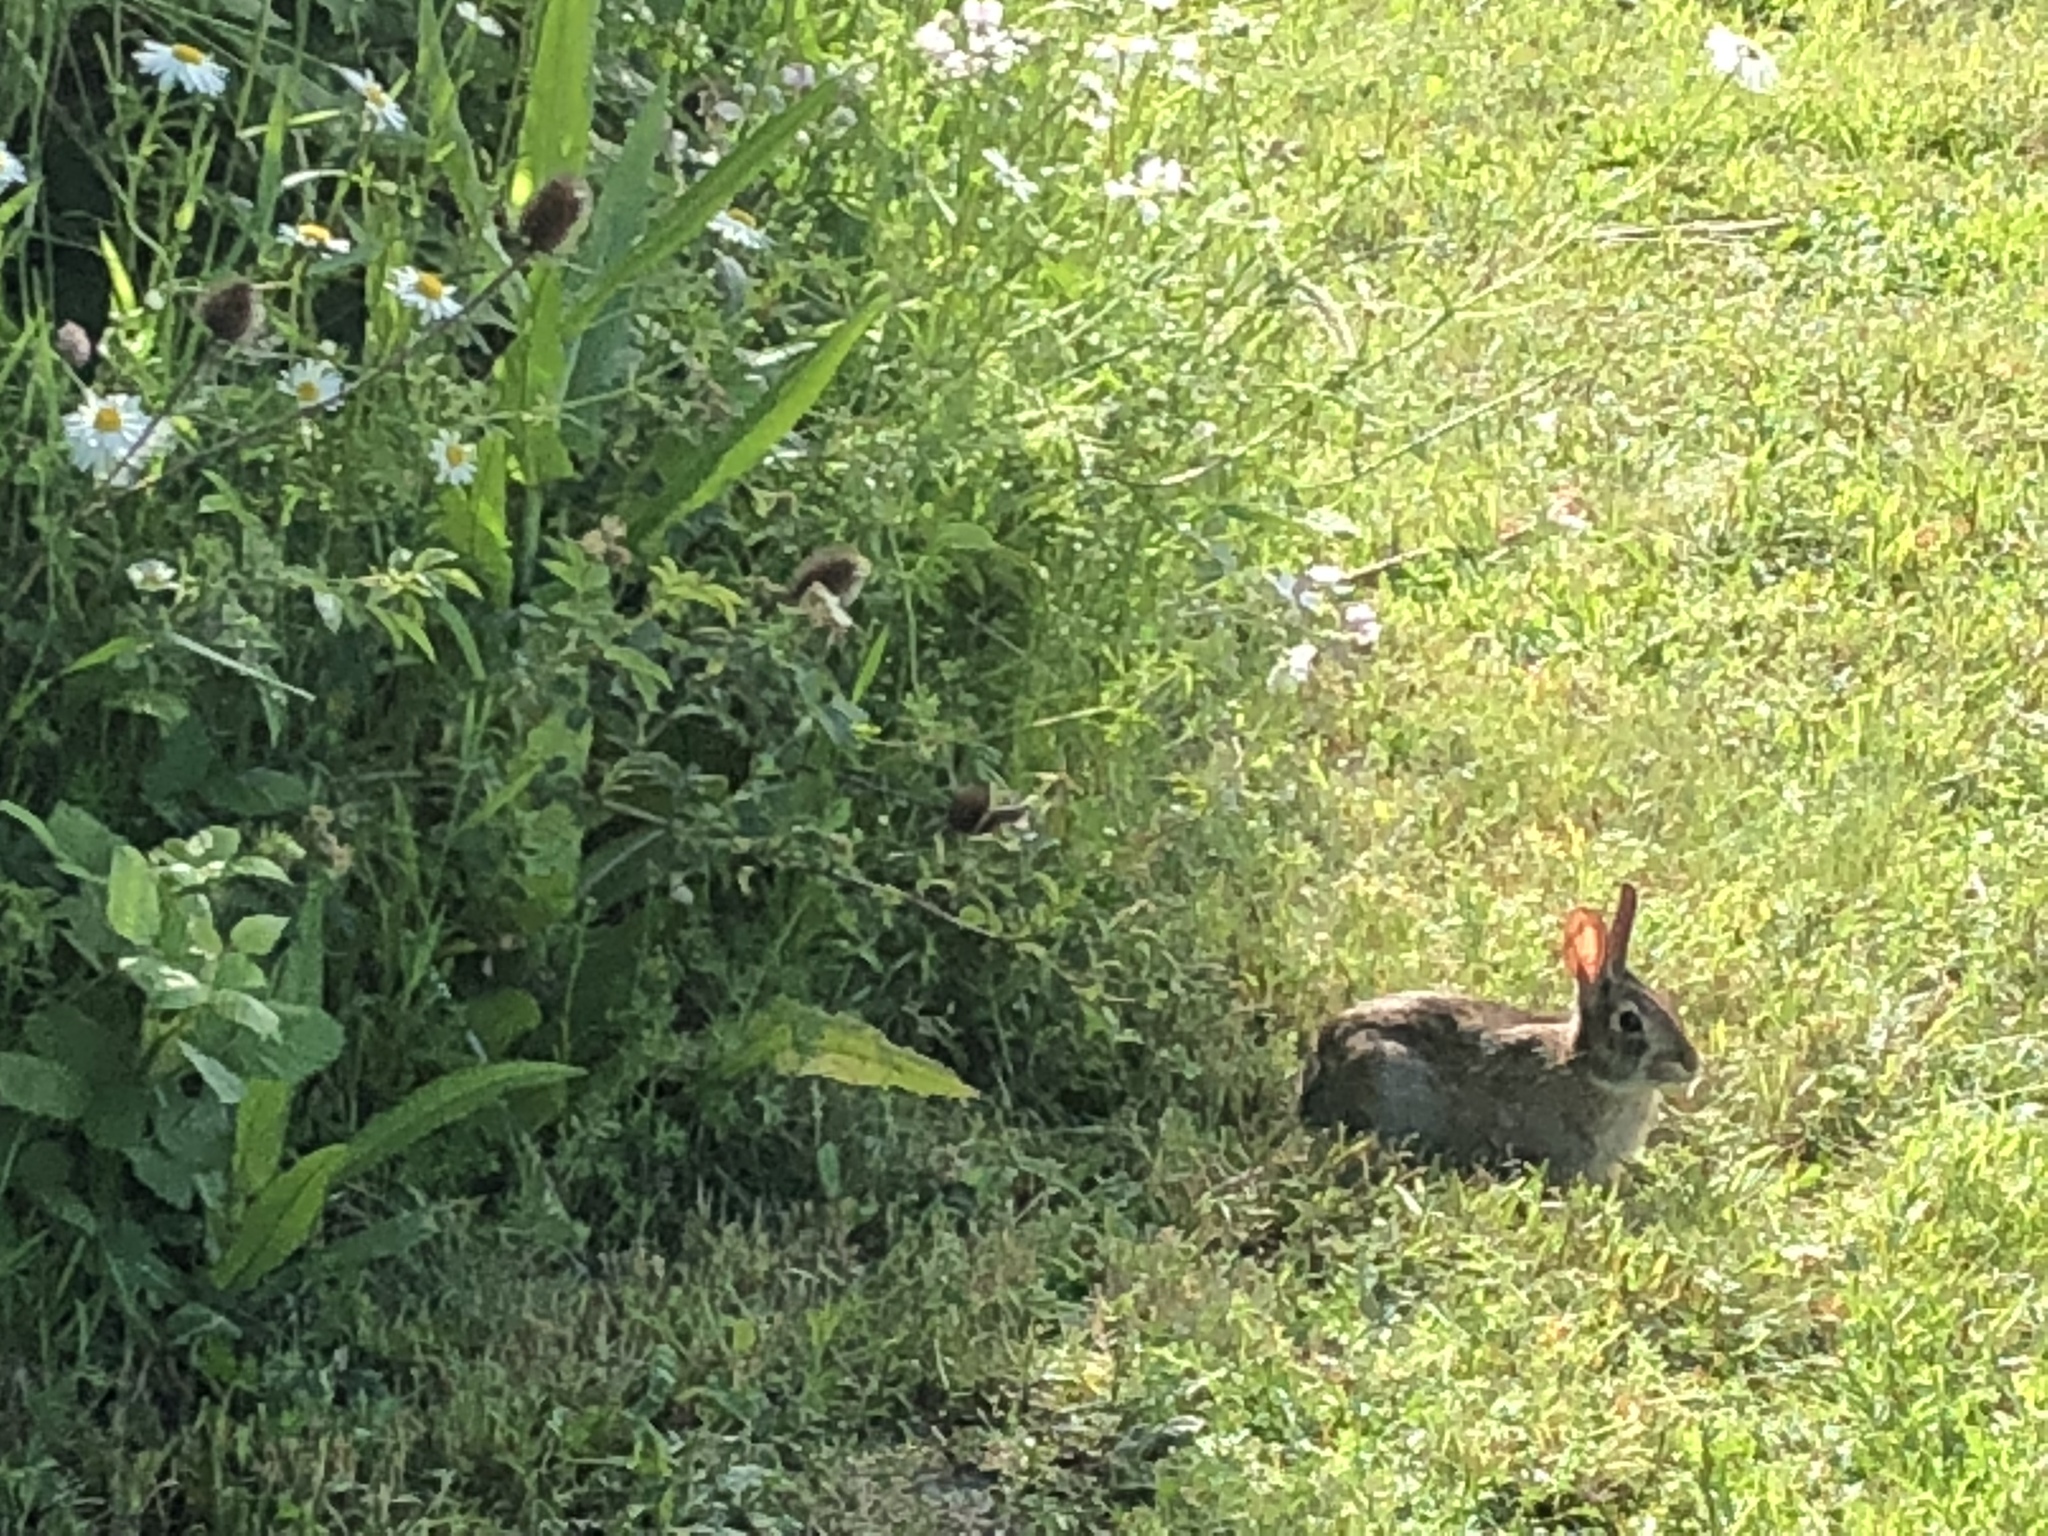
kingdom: Animalia
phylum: Chordata
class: Mammalia
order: Lagomorpha
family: Leporidae
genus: Sylvilagus
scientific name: Sylvilagus bachmani
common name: Brush rabbit
